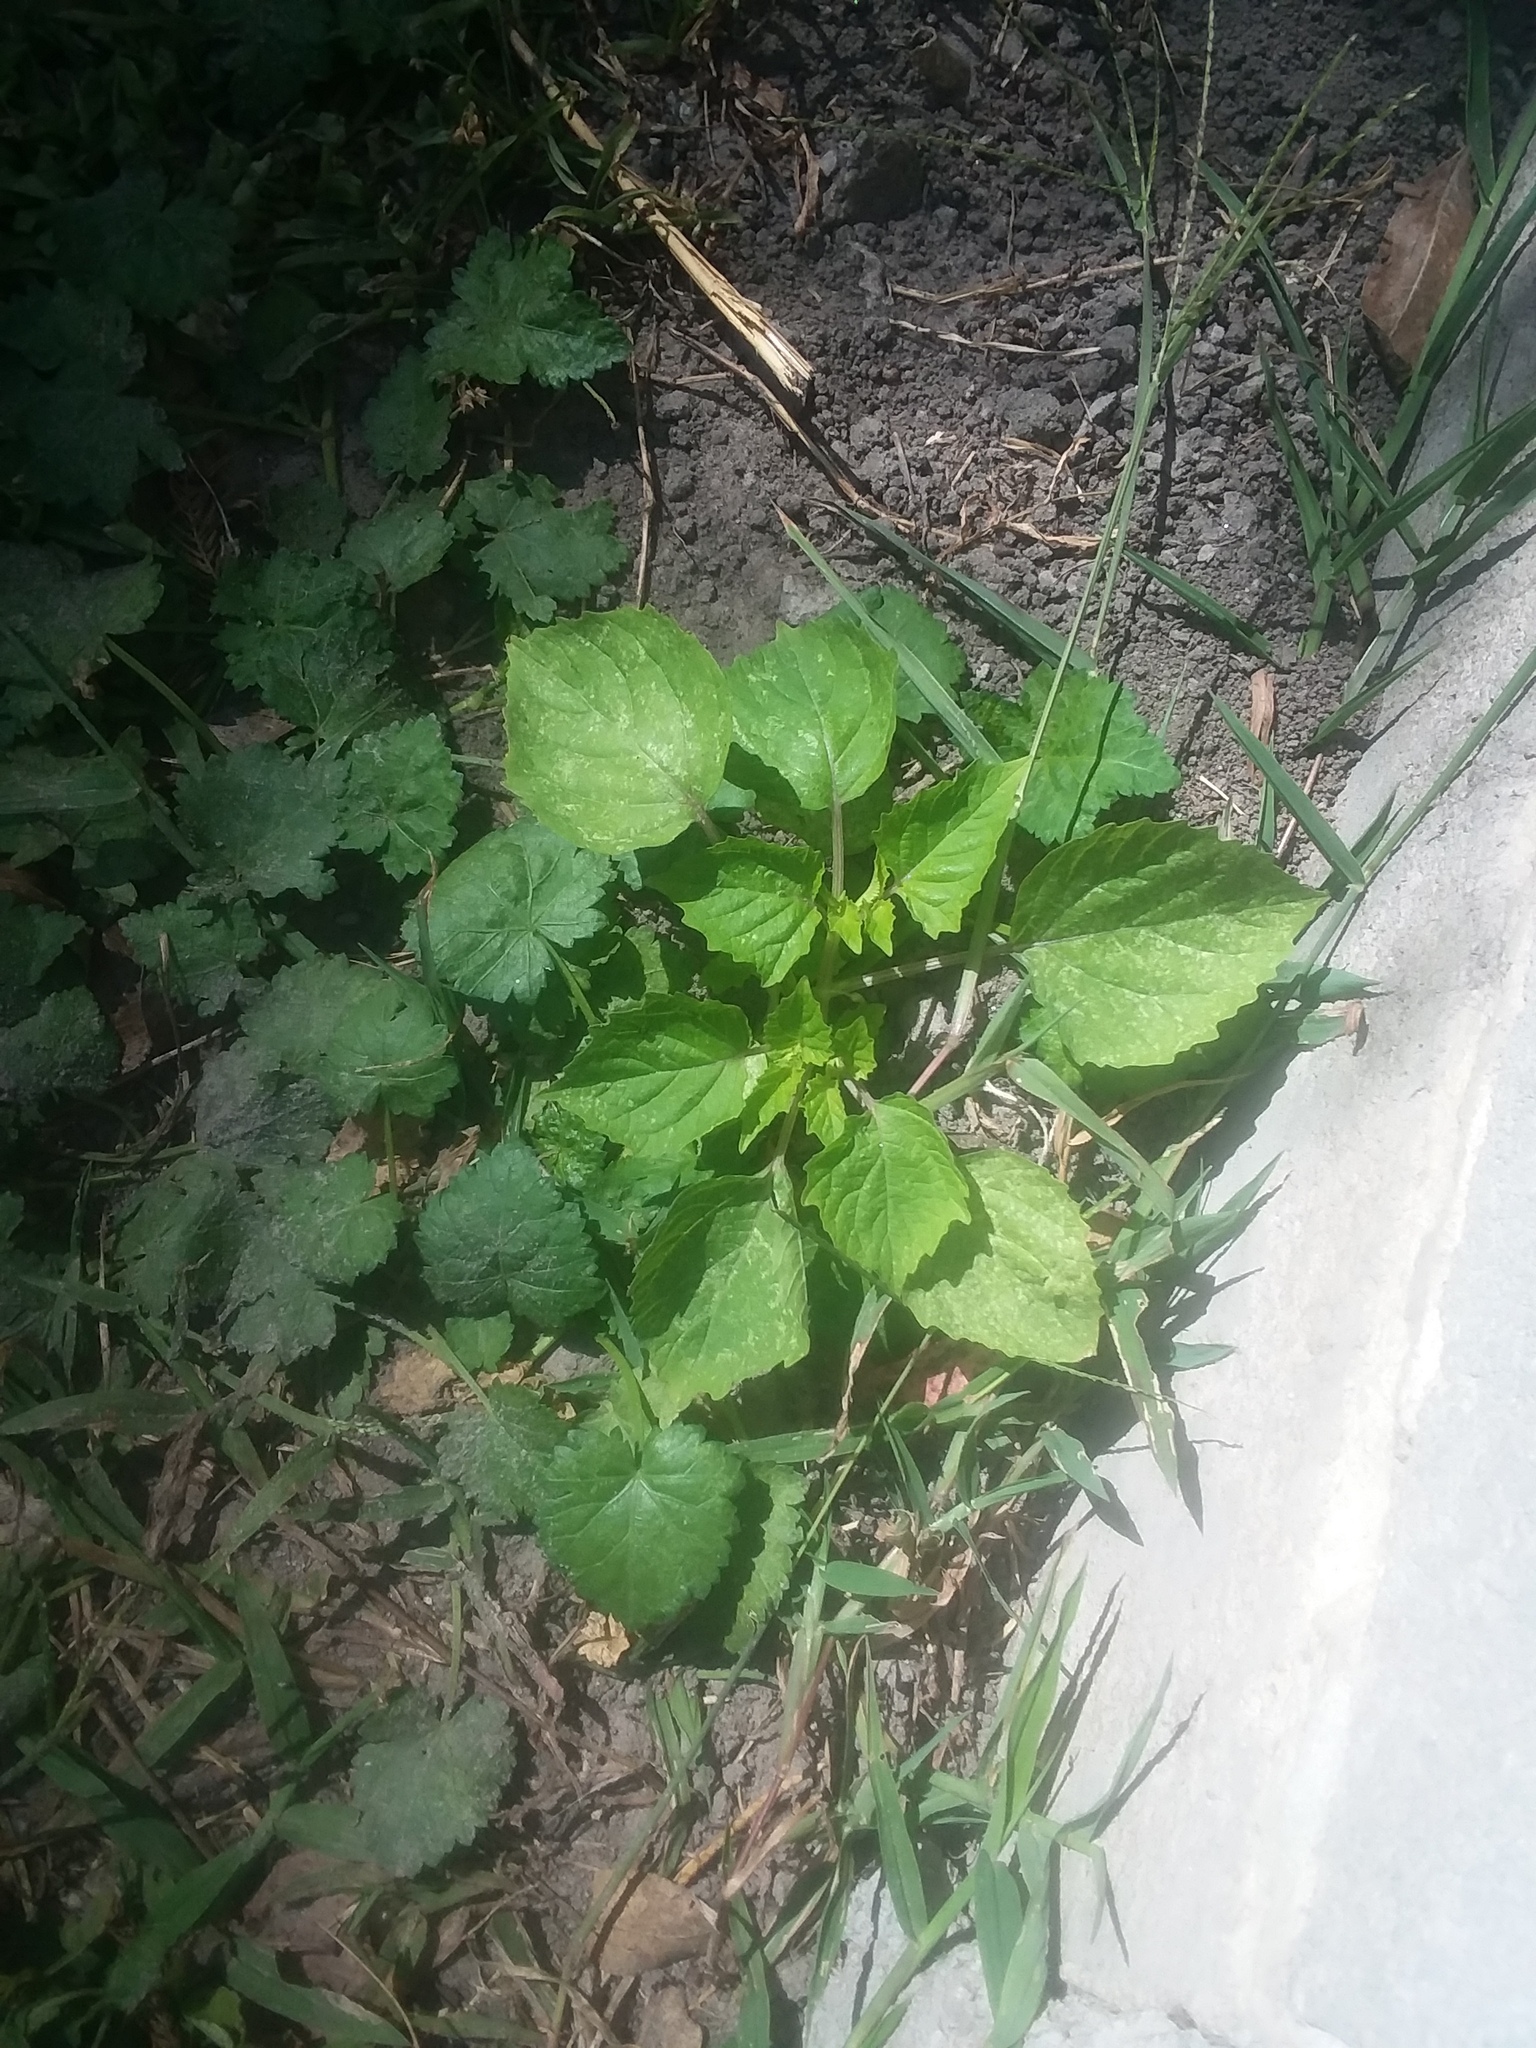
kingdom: Plantae
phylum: Tracheophyta
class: Magnoliopsida
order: Solanales
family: Solanaceae
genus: Physalis
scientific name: Physalis cordata
